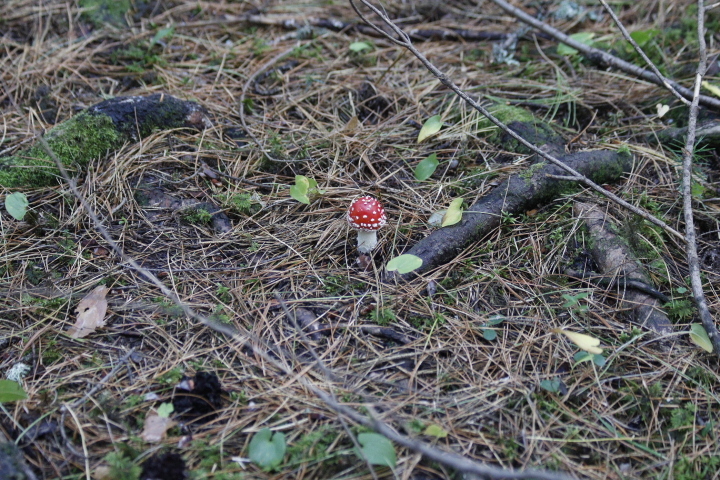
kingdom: Fungi
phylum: Basidiomycota
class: Agaricomycetes
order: Agaricales
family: Amanitaceae
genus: Amanita
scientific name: Amanita muscaria
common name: Fly agaric
